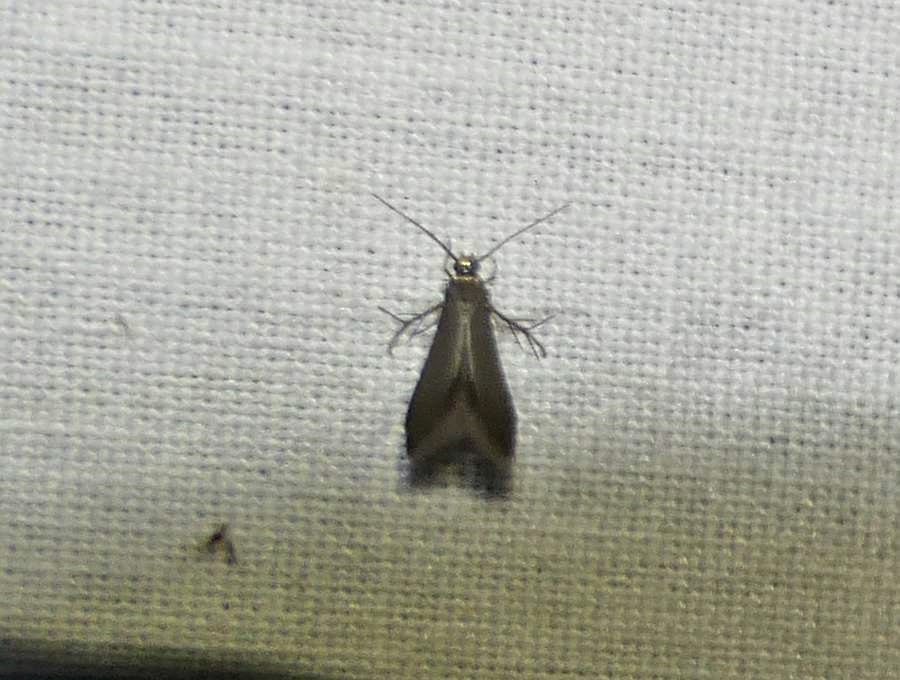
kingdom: Animalia
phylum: Arthropoda
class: Insecta
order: Lepidoptera
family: Schreckensteiniidae
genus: Schreckensteinia
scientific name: Schreckensteinia erythriella
